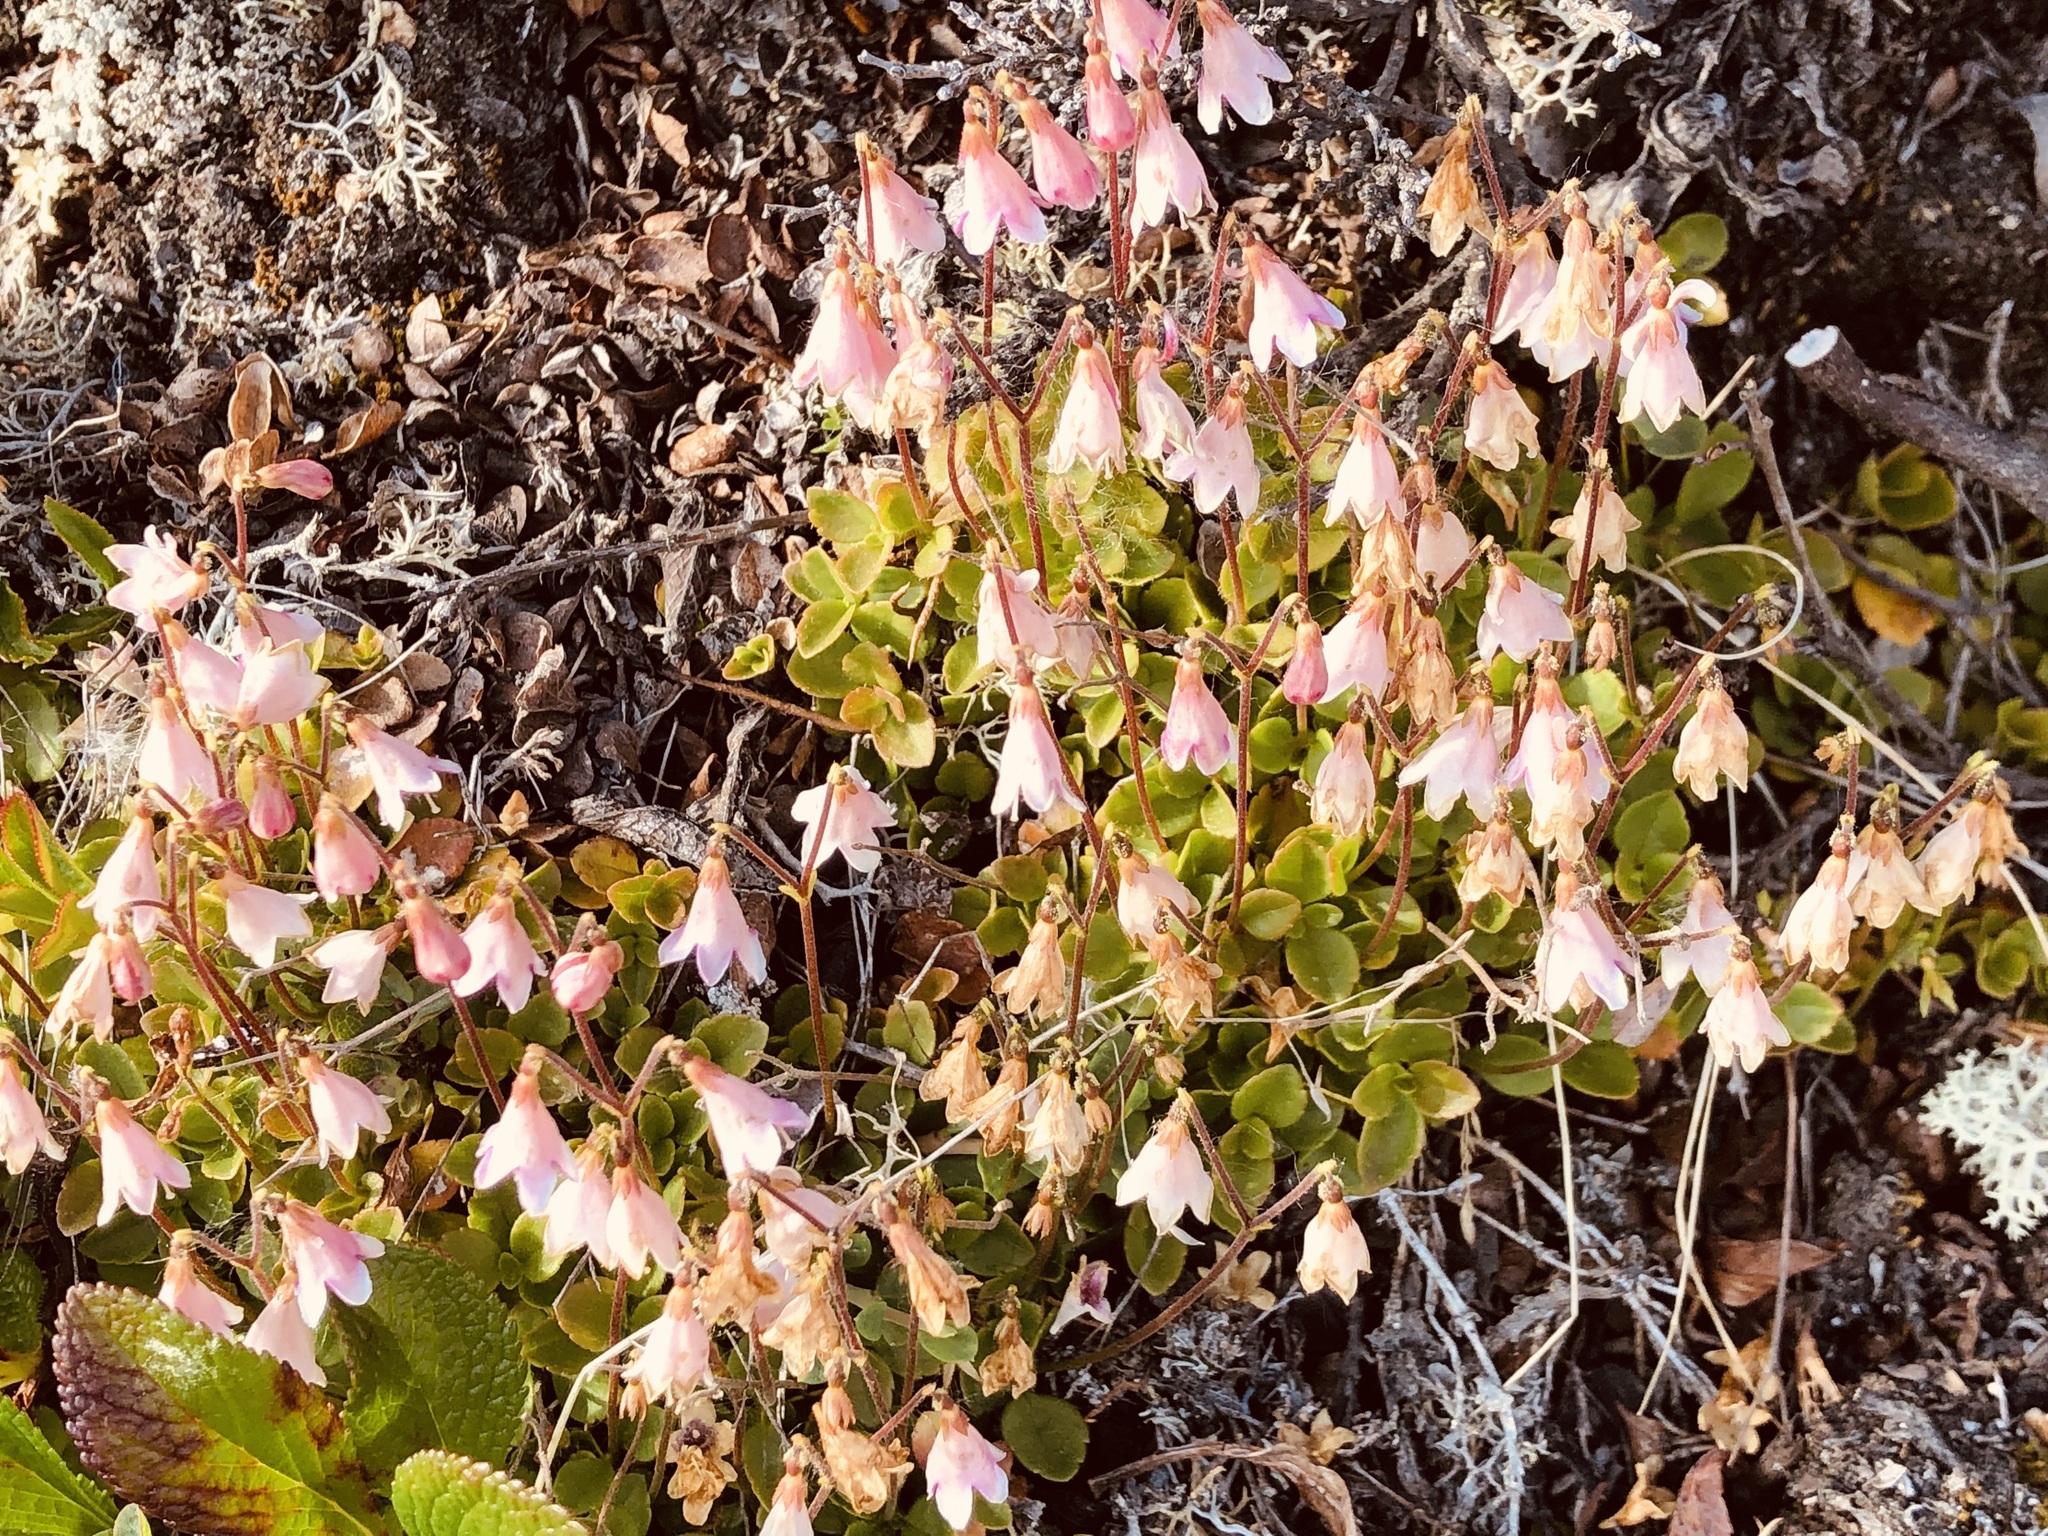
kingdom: Plantae
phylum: Tracheophyta
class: Magnoliopsida
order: Dipsacales
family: Caprifoliaceae
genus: Linnaea
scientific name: Linnaea borealis
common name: Twinflower
